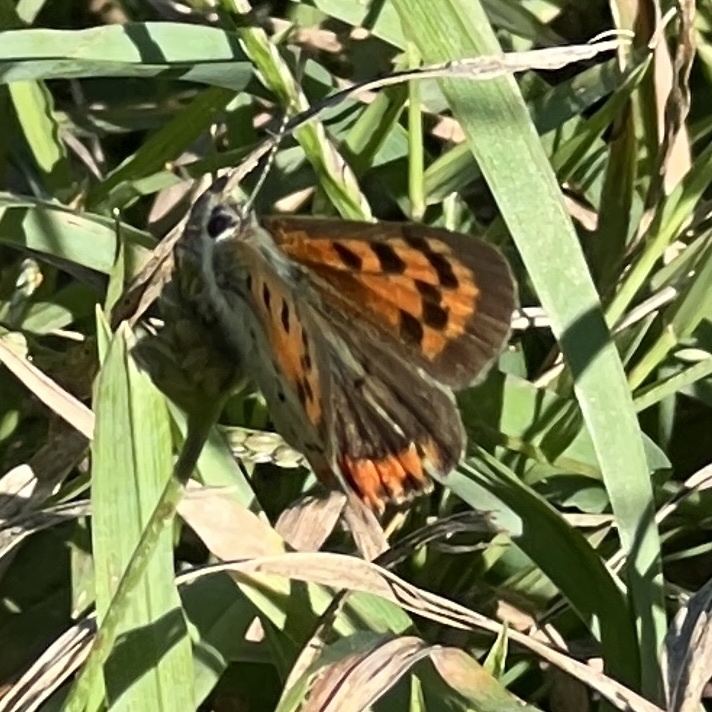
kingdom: Animalia
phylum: Arthropoda
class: Insecta
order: Lepidoptera
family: Lycaenidae
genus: Lycaena
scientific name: Lycaena hypophlaeas
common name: American copper
